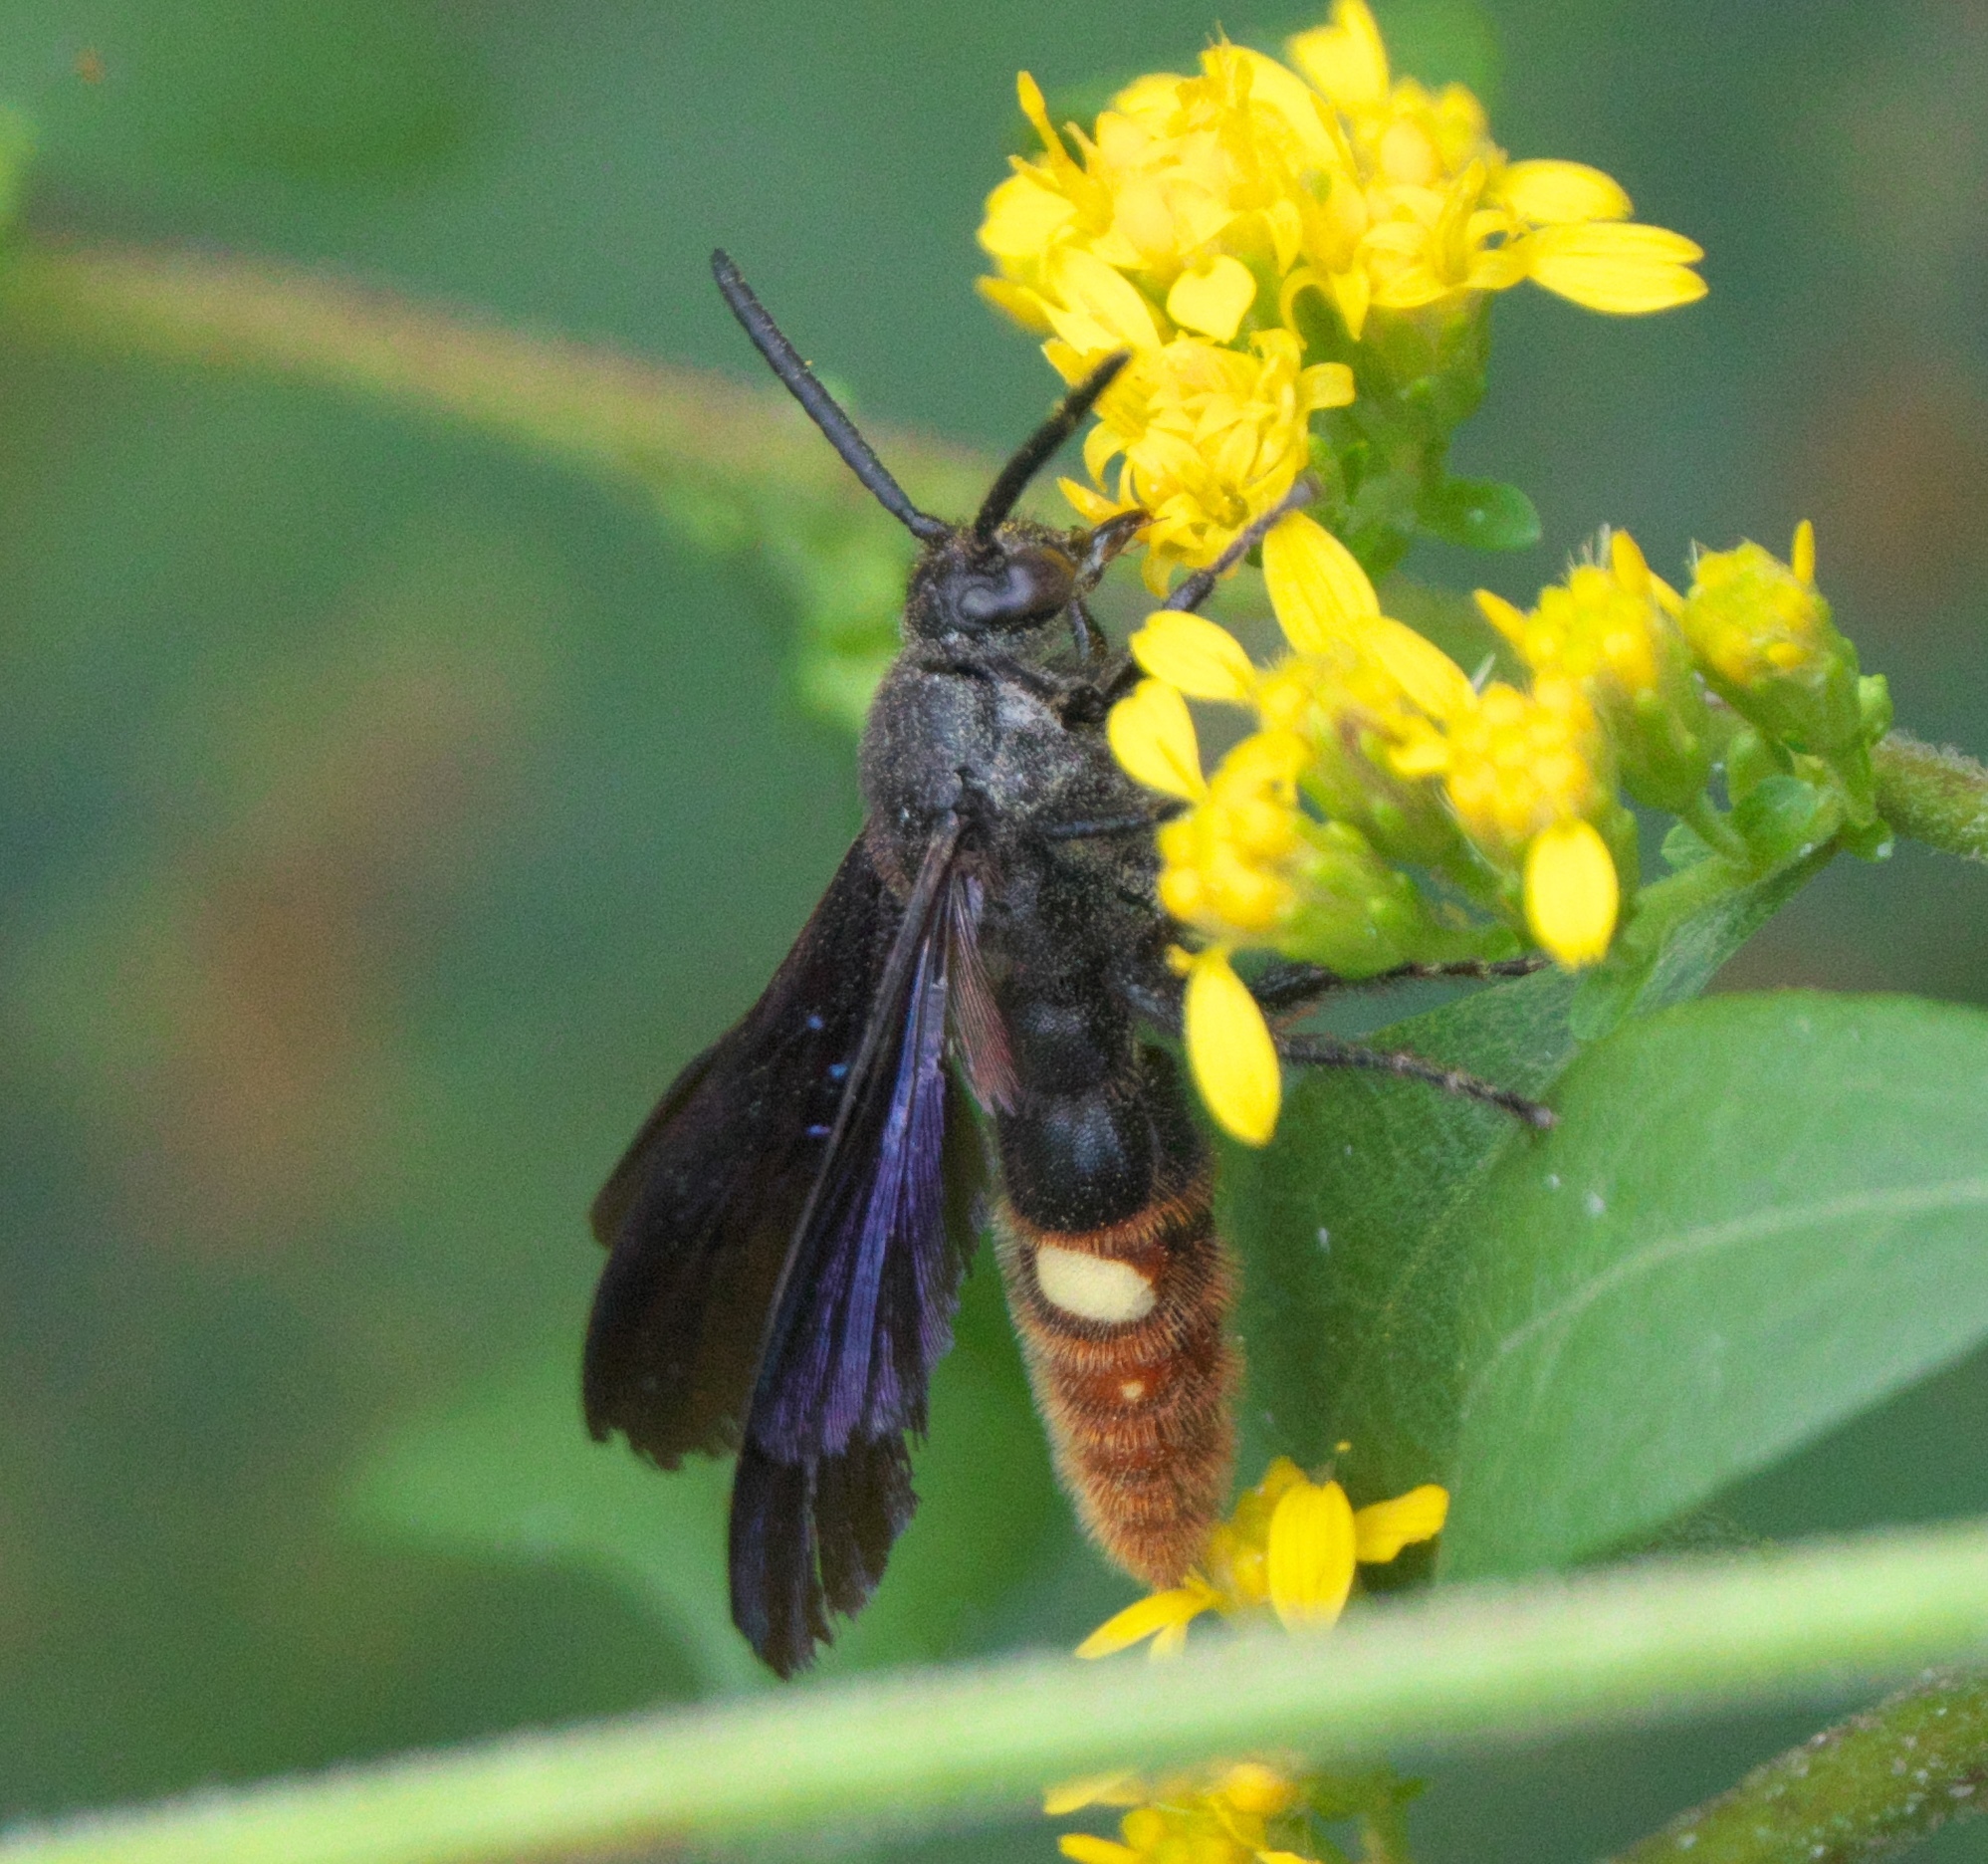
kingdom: Animalia
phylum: Arthropoda
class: Insecta
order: Hymenoptera
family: Scoliidae
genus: Scolia
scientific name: Scolia dubia
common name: Blue-winged scoliid wasp
